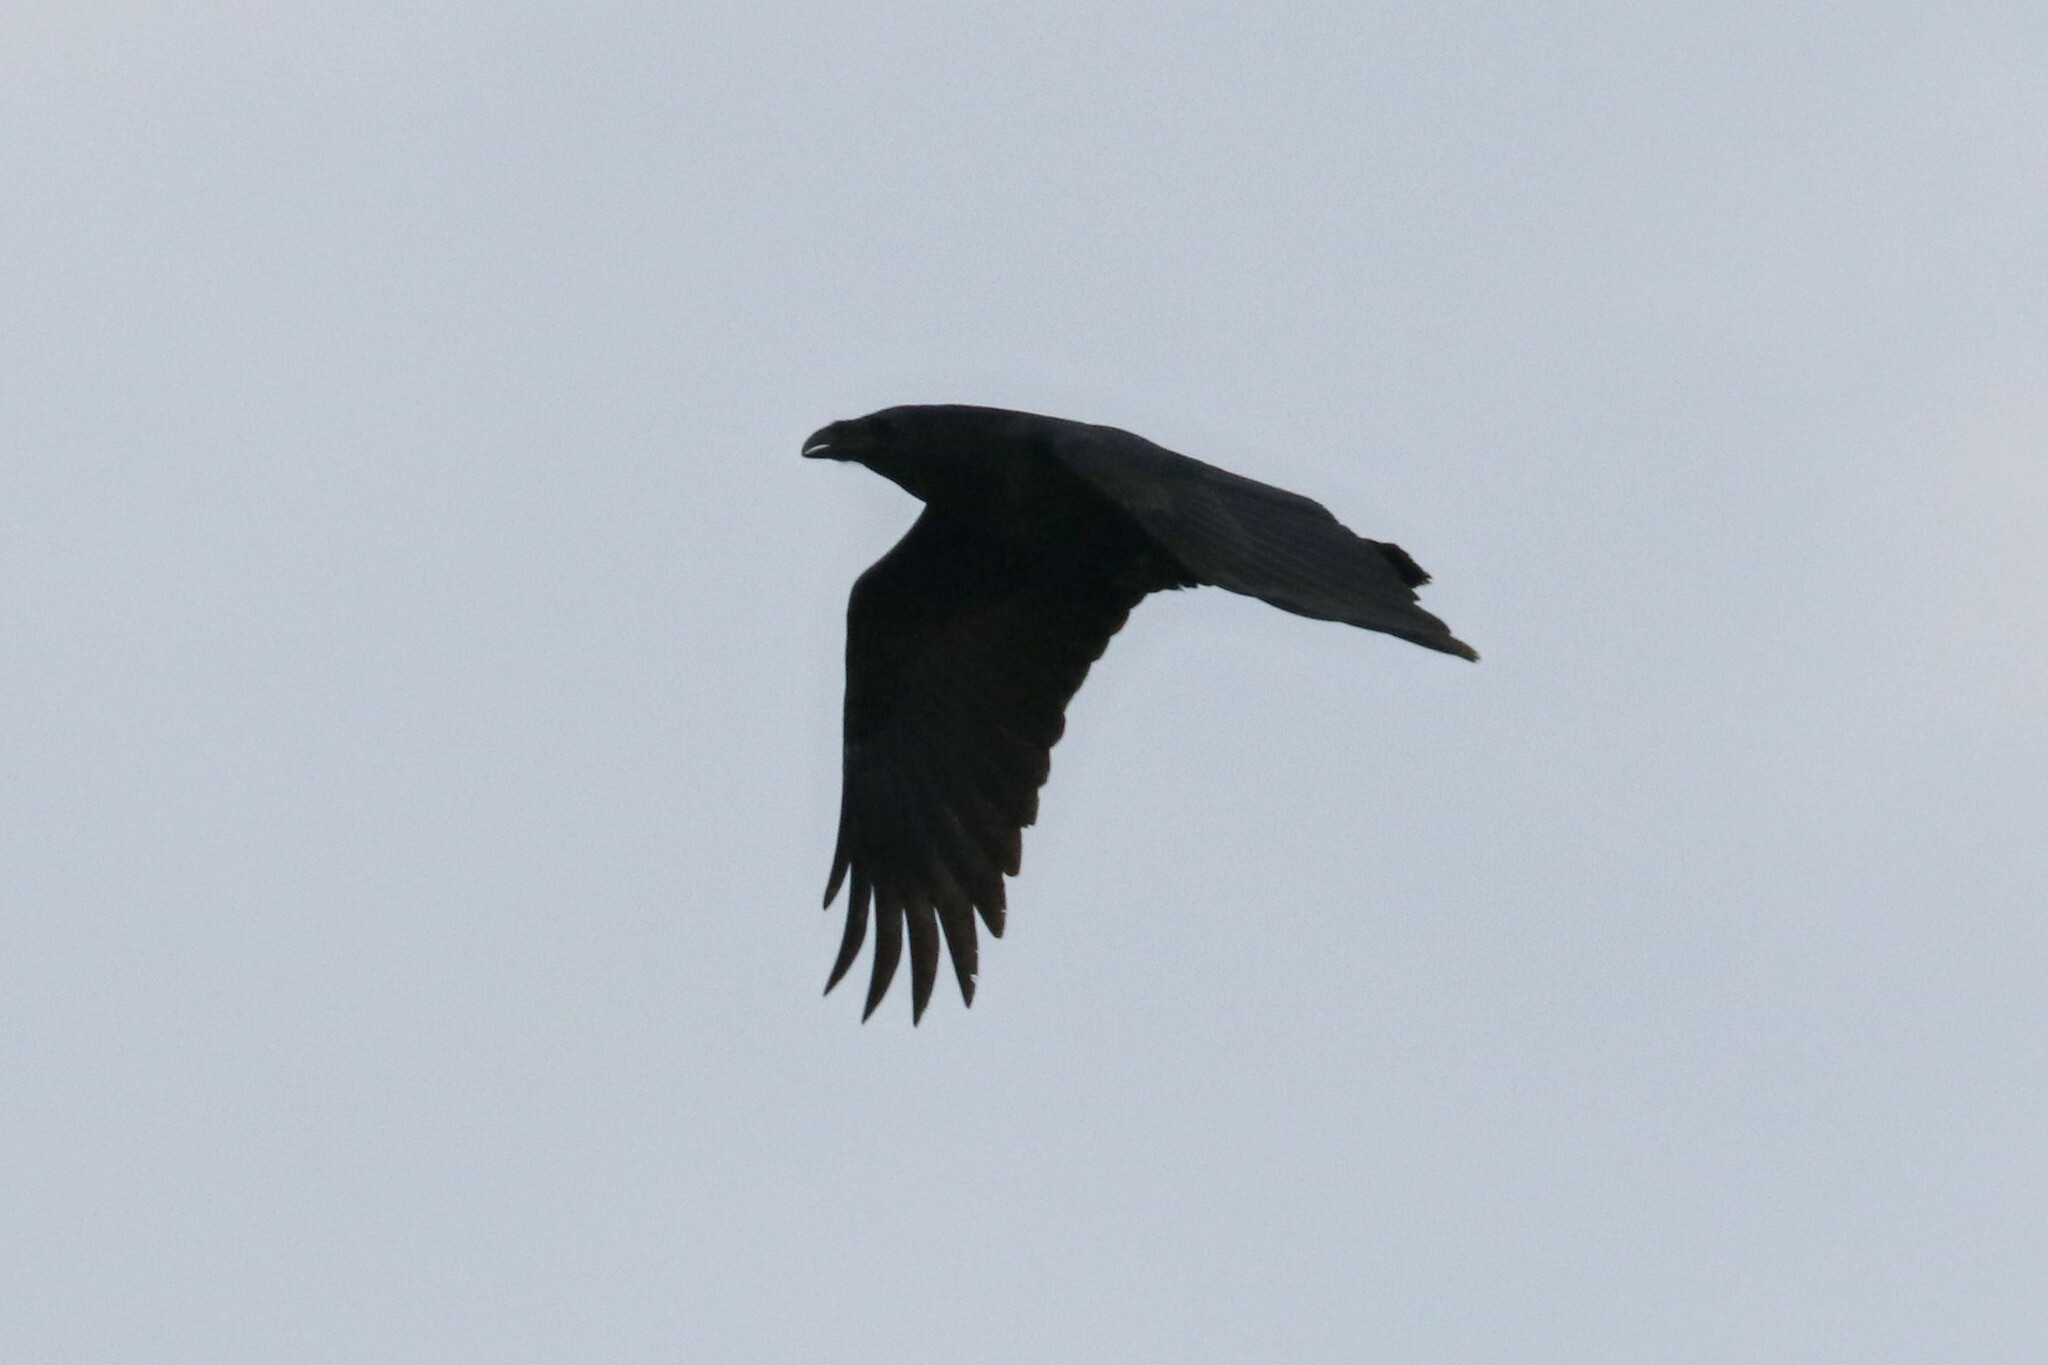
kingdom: Animalia
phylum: Chordata
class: Aves
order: Passeriformes
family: Corvidae
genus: Corvus
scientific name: Corvus corax
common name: Common raven
